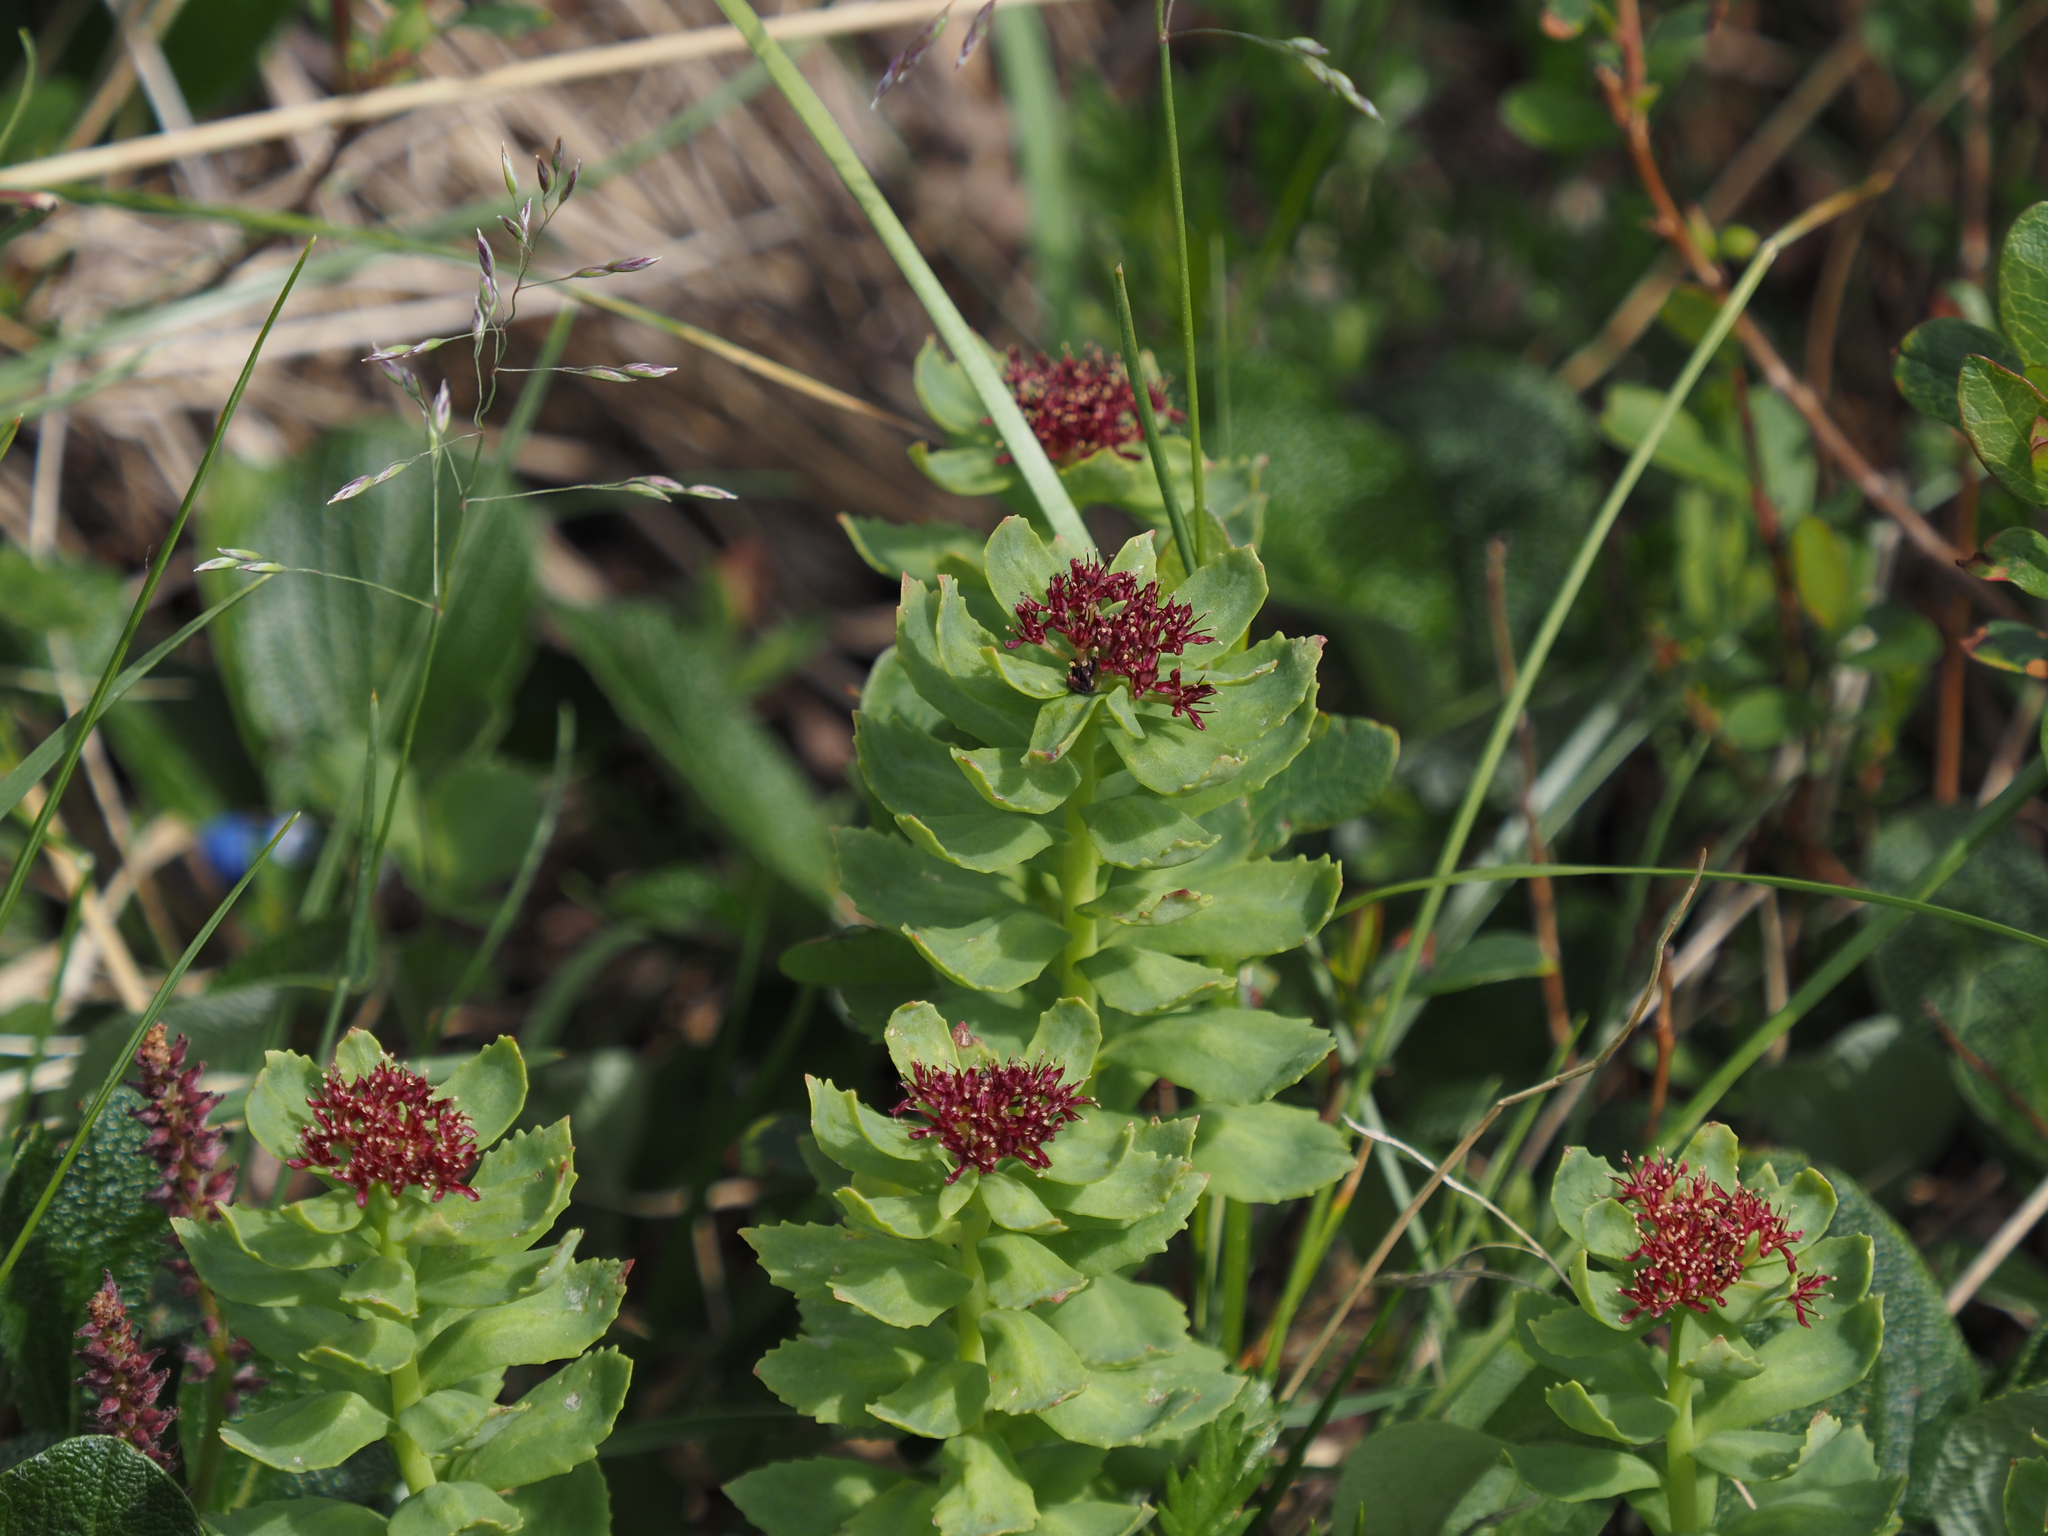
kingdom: Plantae
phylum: Tracheophyta
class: Magnoliopsida
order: Saxifragales
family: Crassulaceae
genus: Rhodiola
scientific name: Rhodiola integrifolia
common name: Western roseroot
